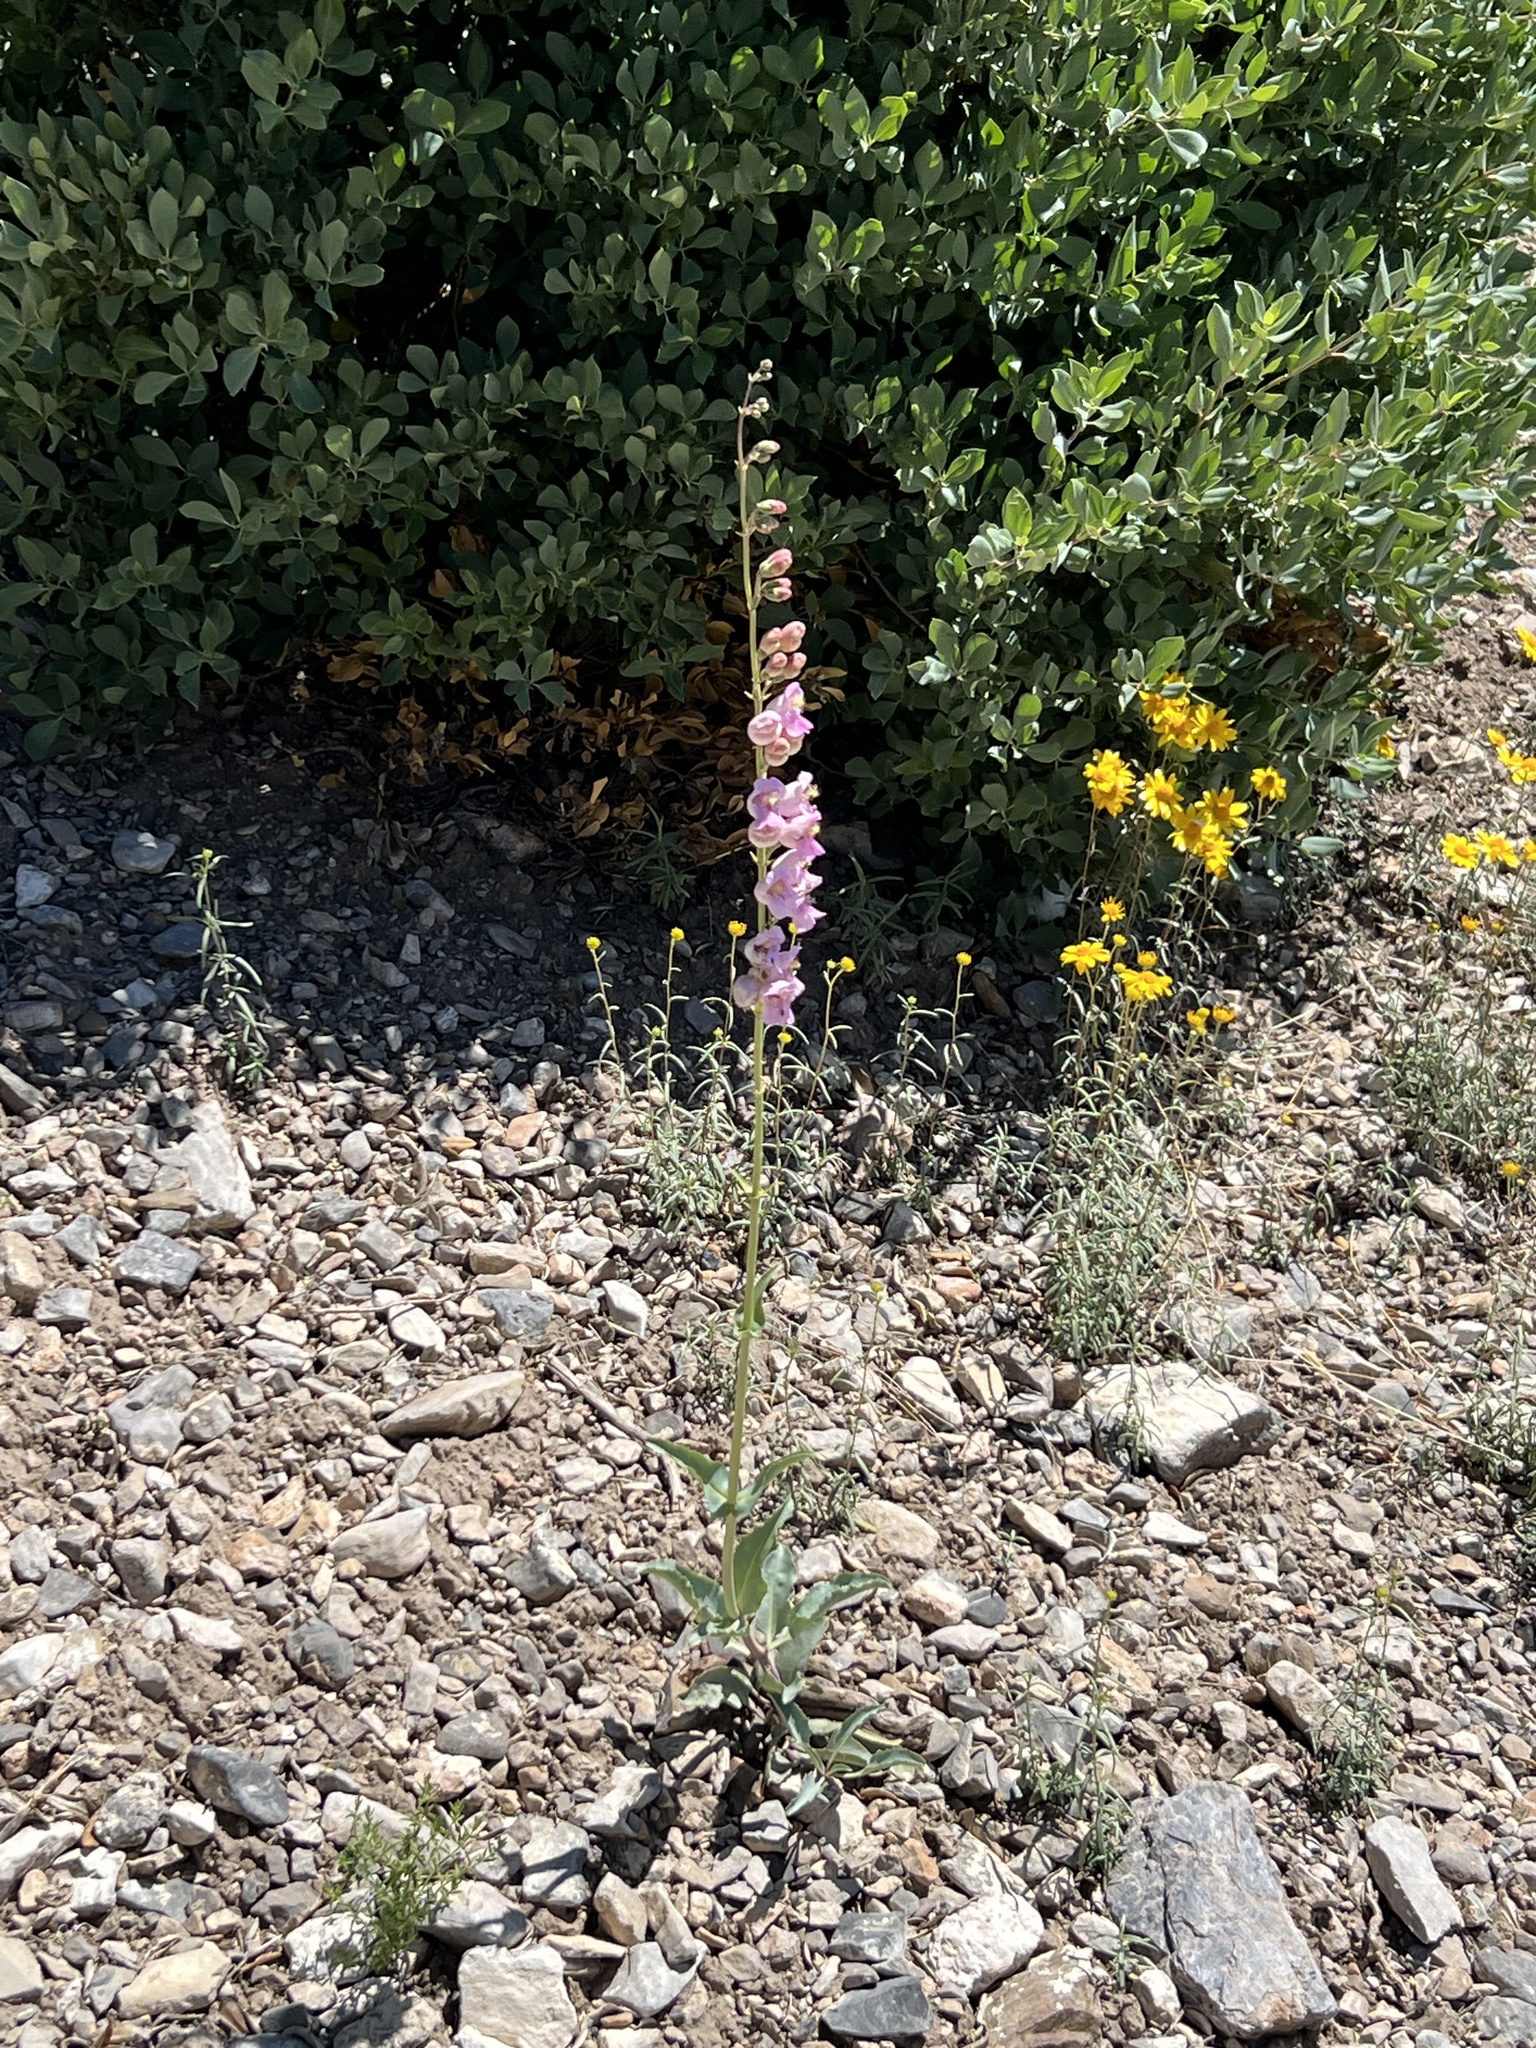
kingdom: Plantae
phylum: Tracheophyta
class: Magnoliopsida
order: Lamiales
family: Plantaginaceae
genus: Penstemon
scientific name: Penstemon palmeri
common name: Palmer penstemon
